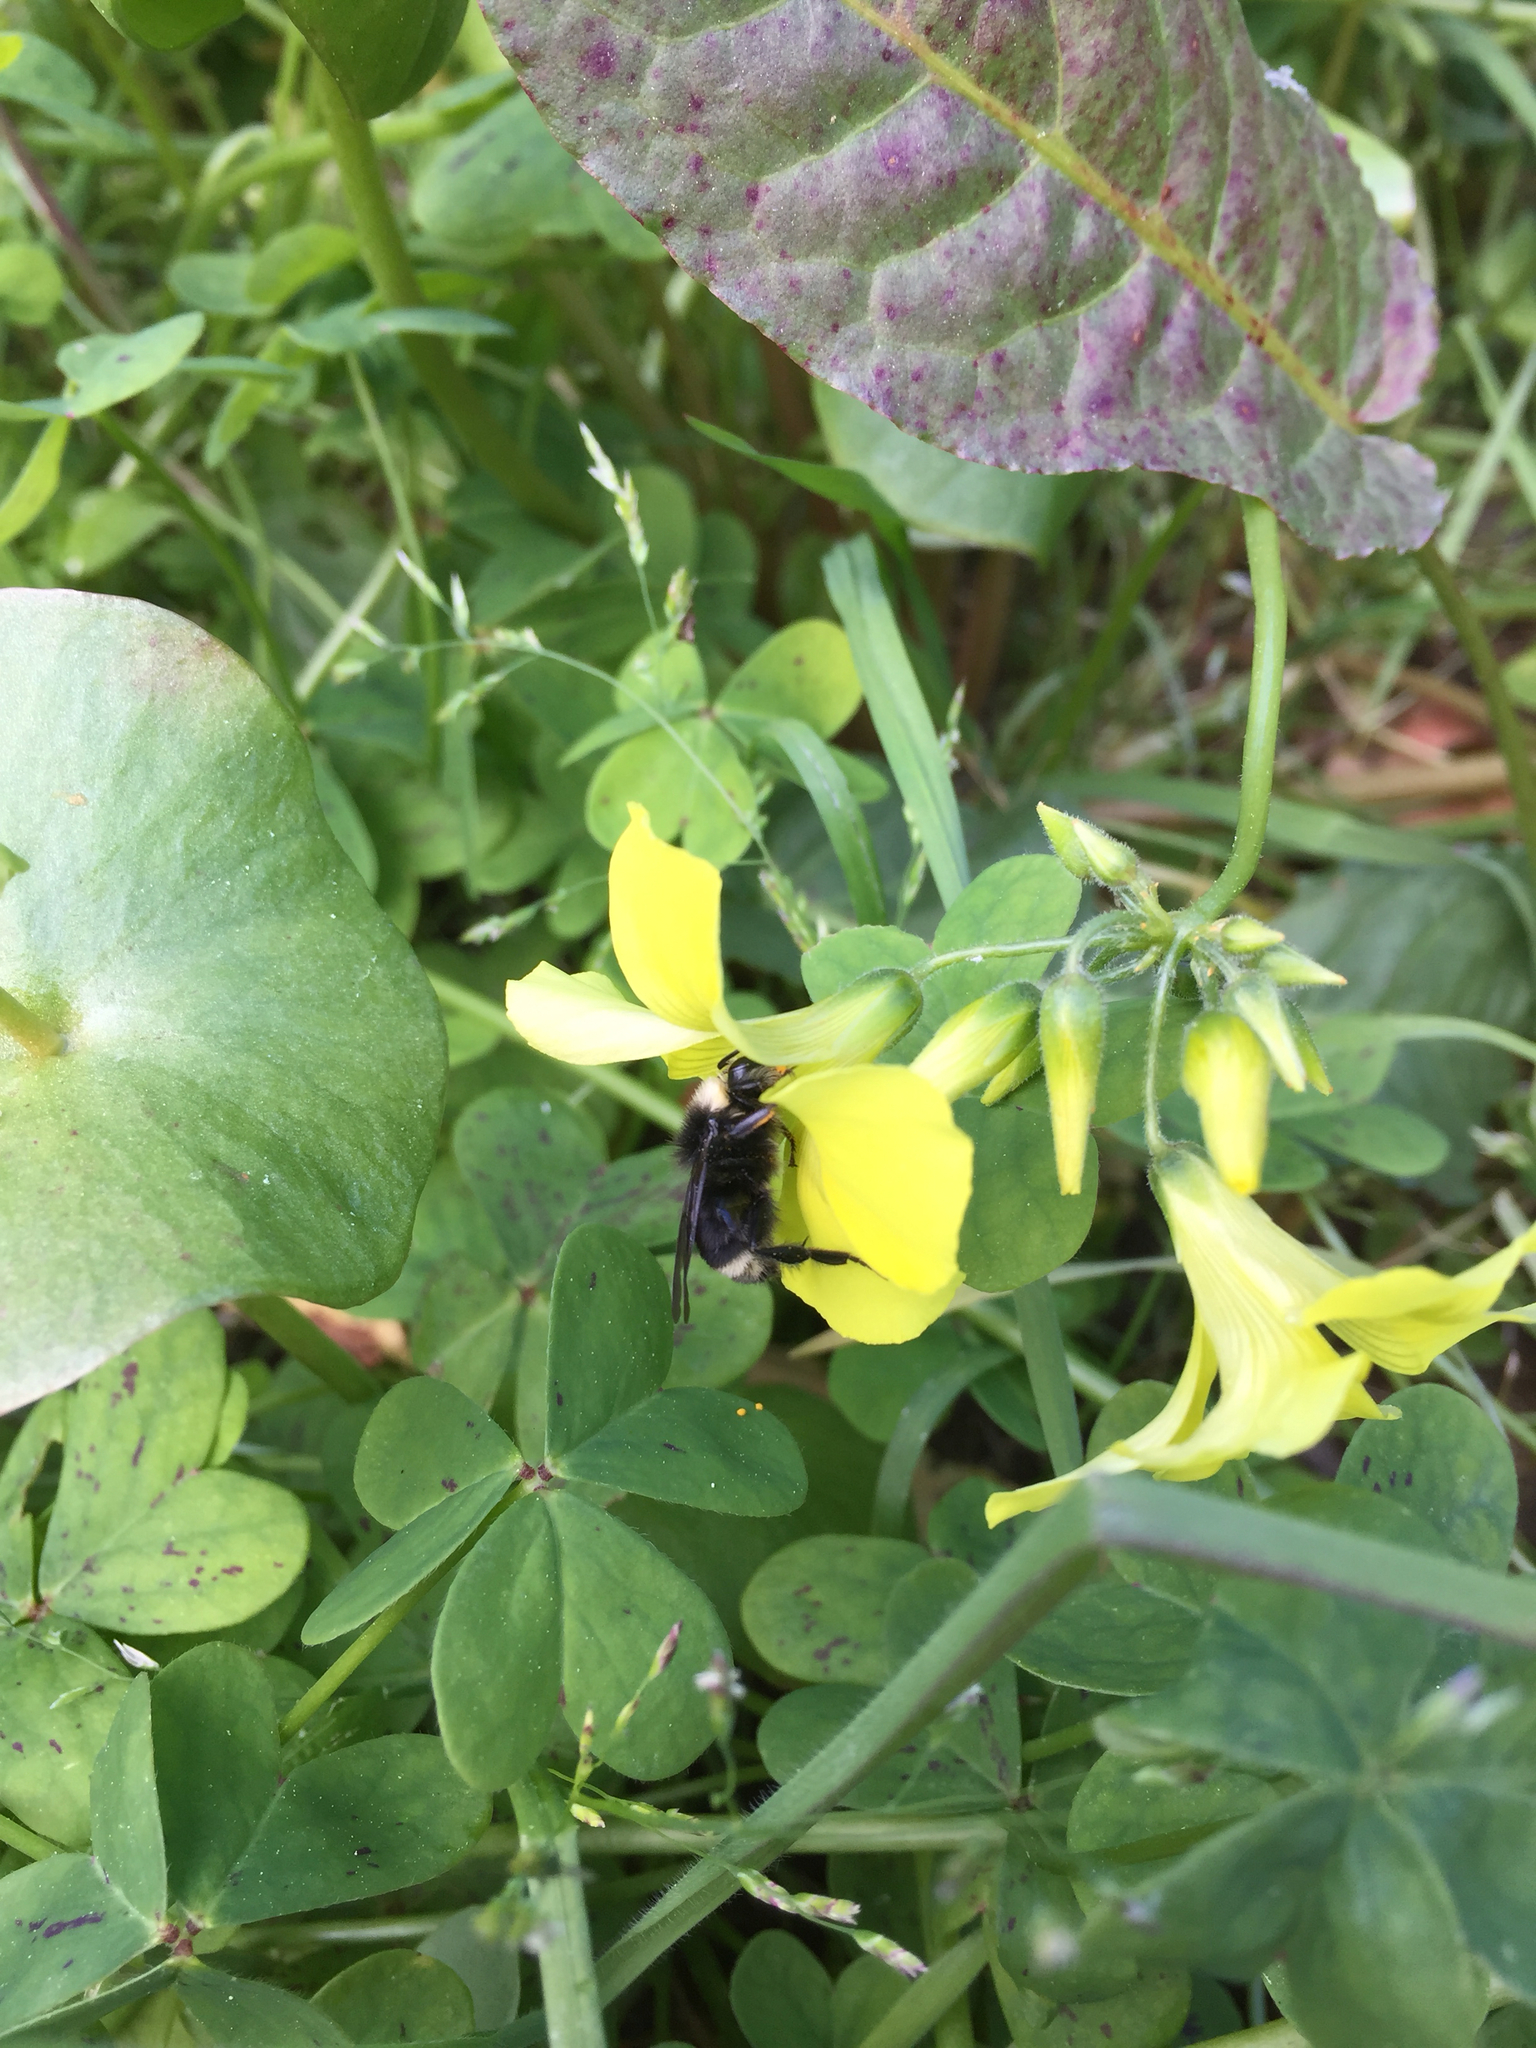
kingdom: Animalia
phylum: Arthropoda
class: Insecta
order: Hymenoptera
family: Apidae
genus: Pyrobombus
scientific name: Pyrobombus
